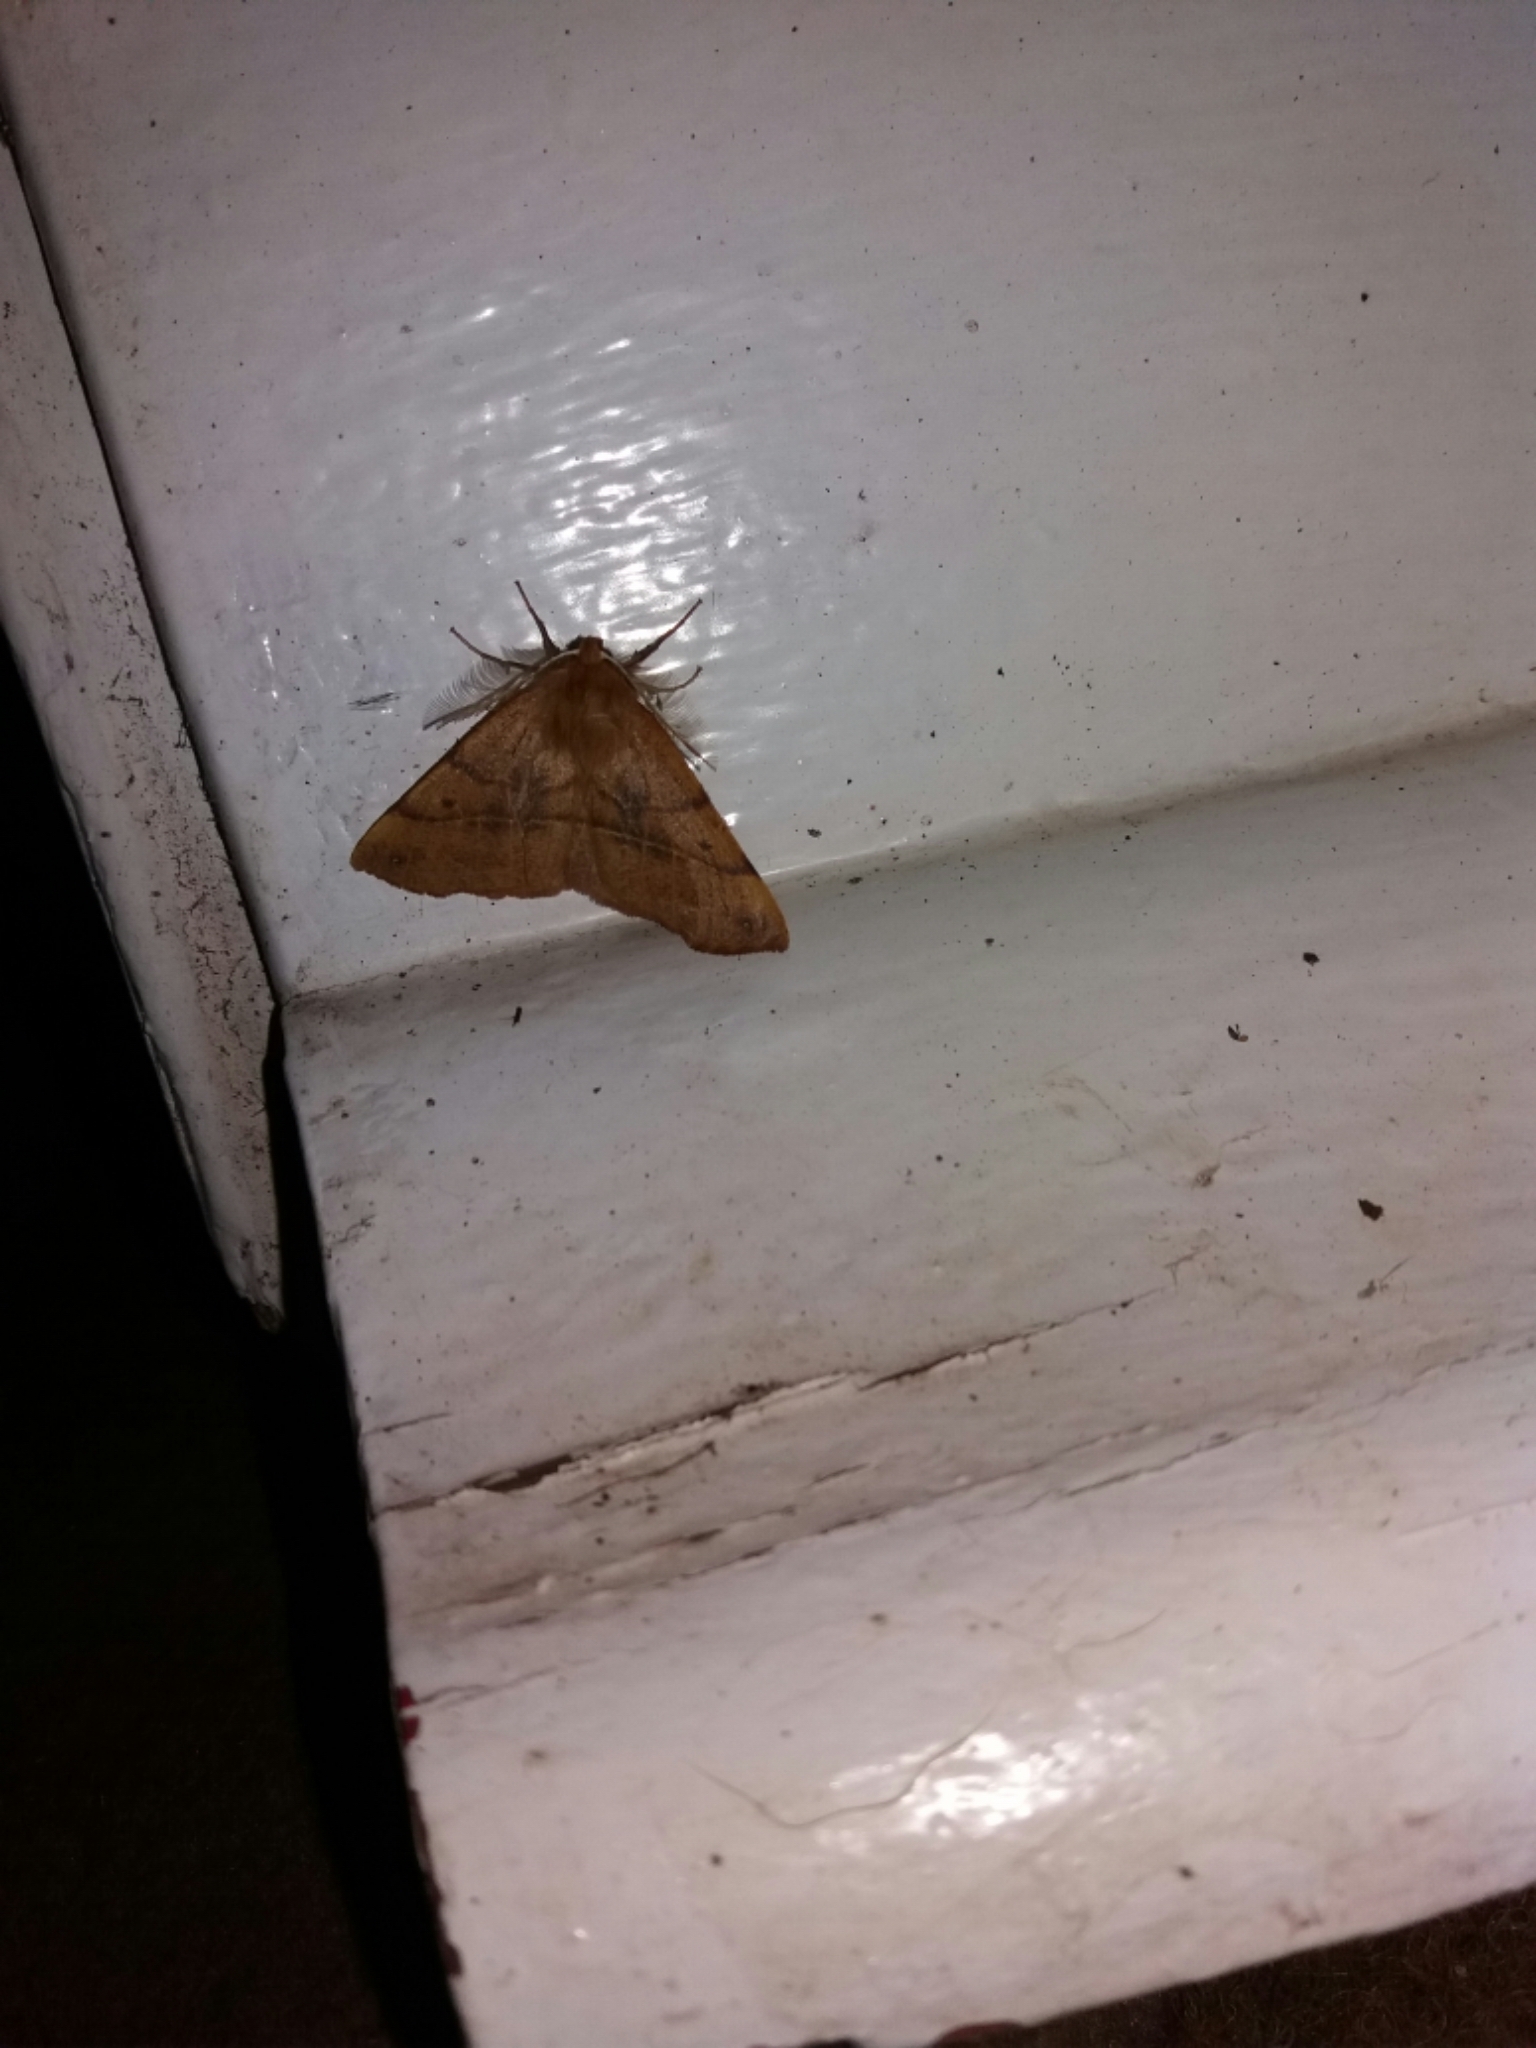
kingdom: Animalia
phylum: Arthropoda
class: Insecta
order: Lepidoptera
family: Geometridae
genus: Colotois
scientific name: Colotois pennaria
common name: Feathered thorn
